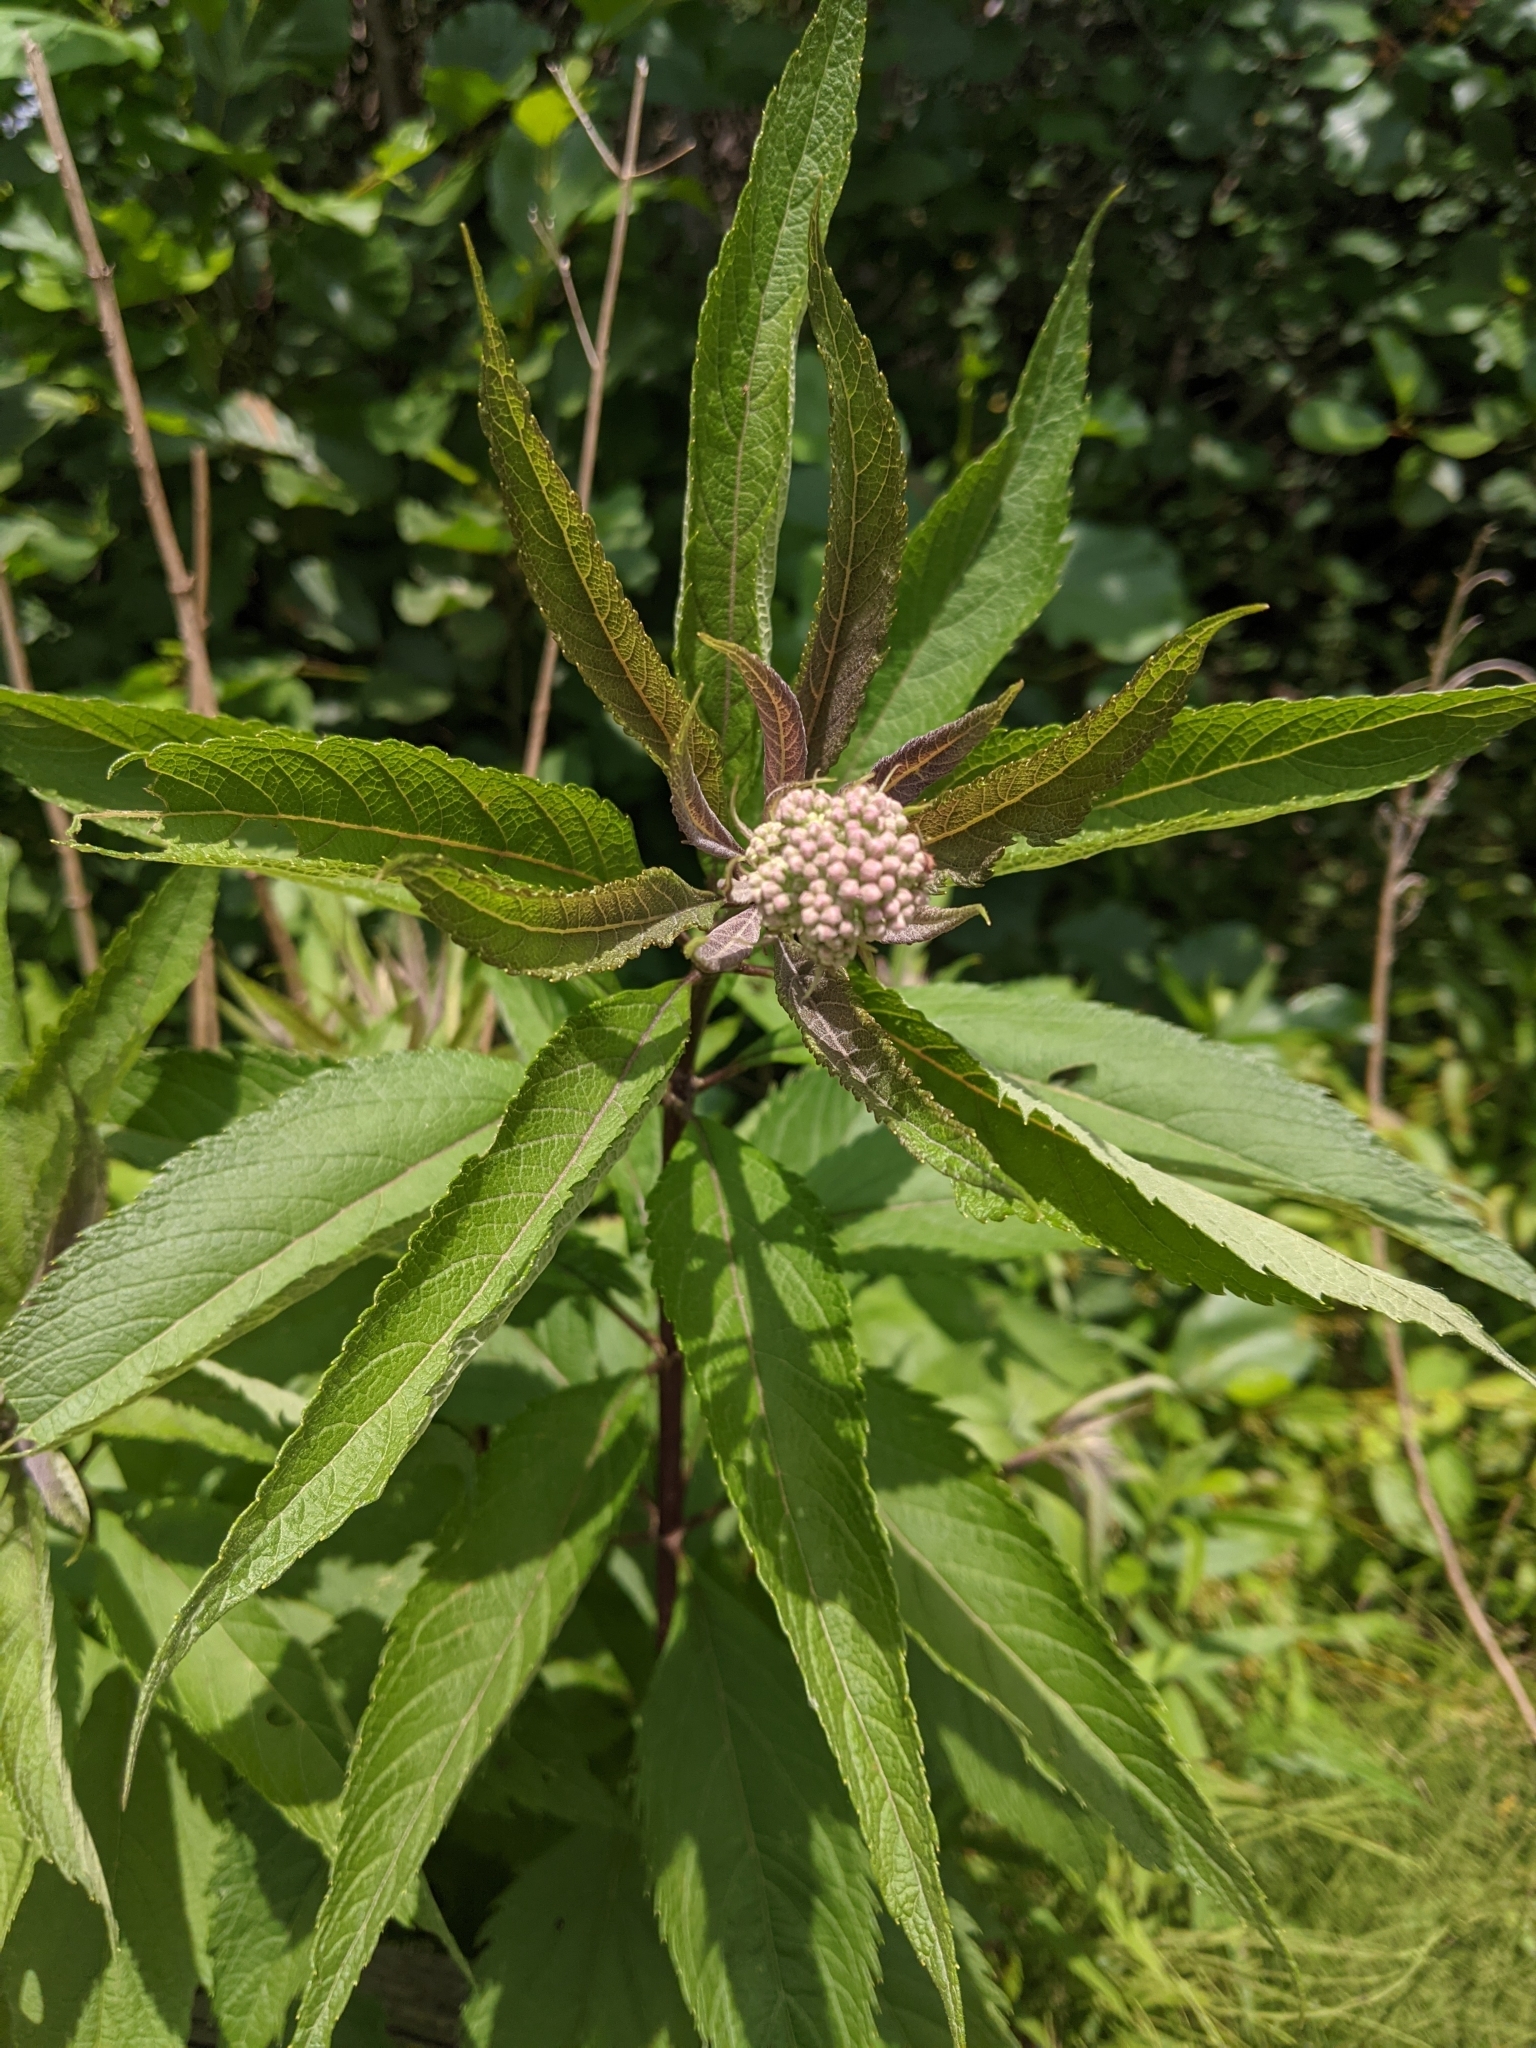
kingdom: Plantae
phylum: Tracheophyta
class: Magnoliopsida
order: Asterales
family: Asteraceae
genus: Eutrochium
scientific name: Eutrochium maculatum
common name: Spotted joe pye weed
